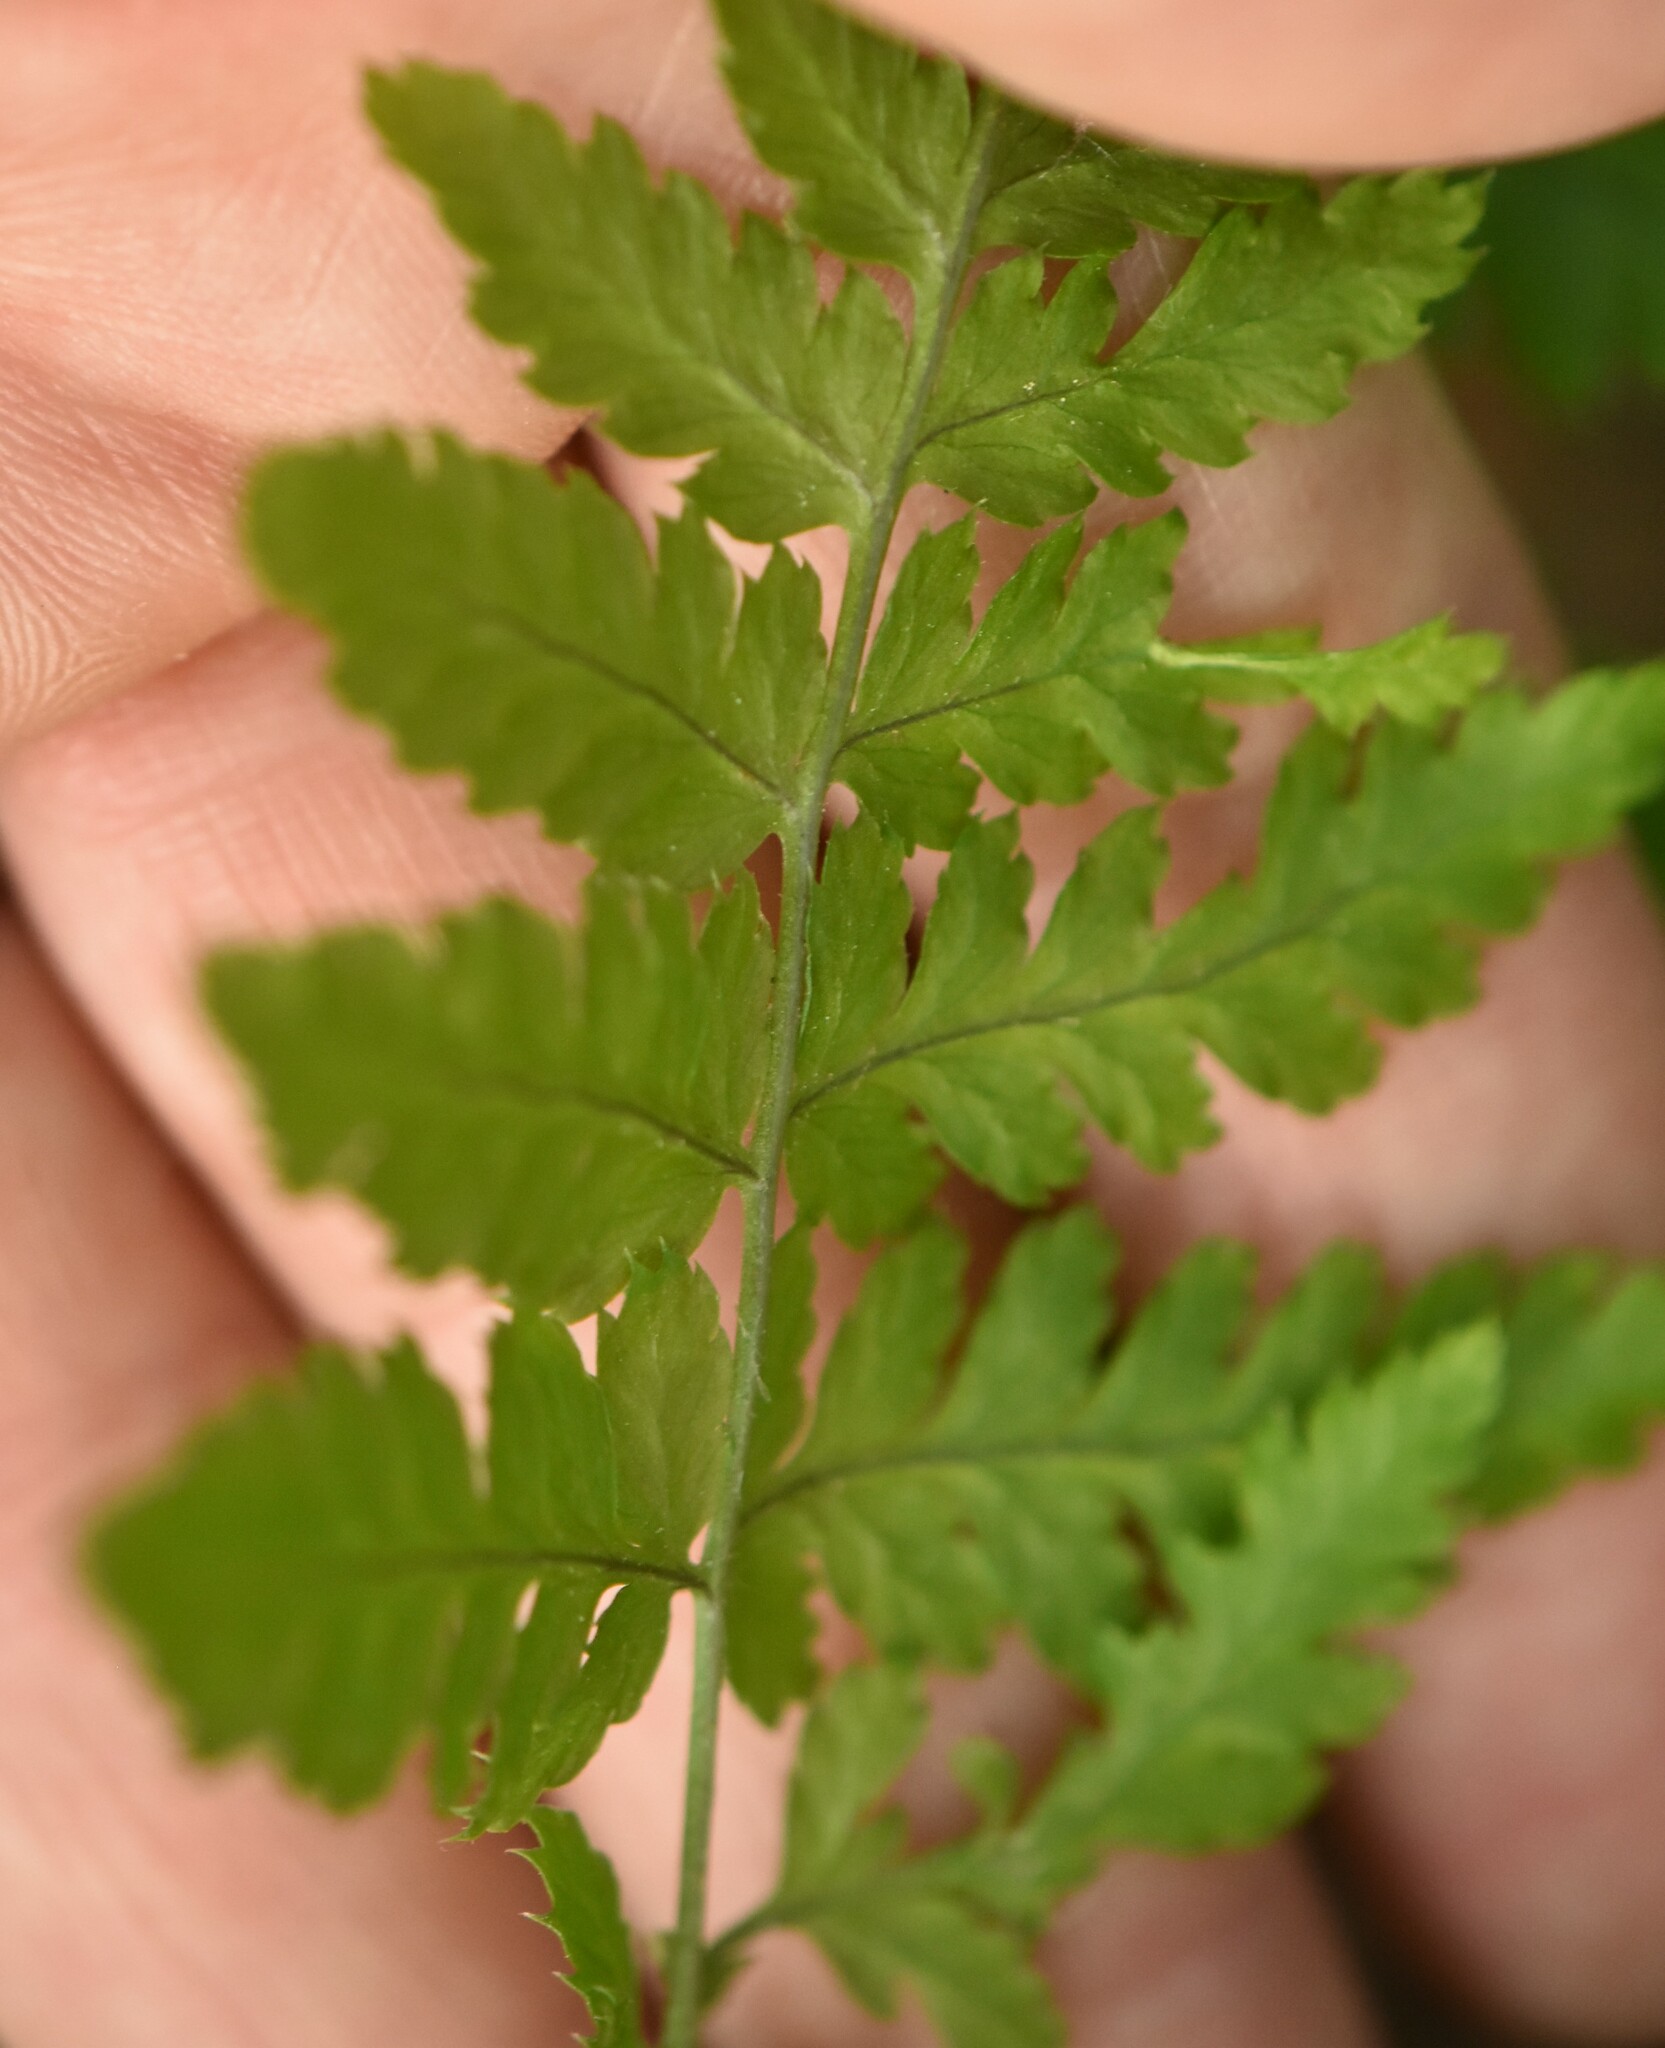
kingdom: Plantae
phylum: Tracheophyta
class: Polypodiopsida
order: Polypodiales
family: Dryopteridaceae
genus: Dryopteris
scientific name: Dryopteris carthusiana
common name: Narrow buckler-fern
